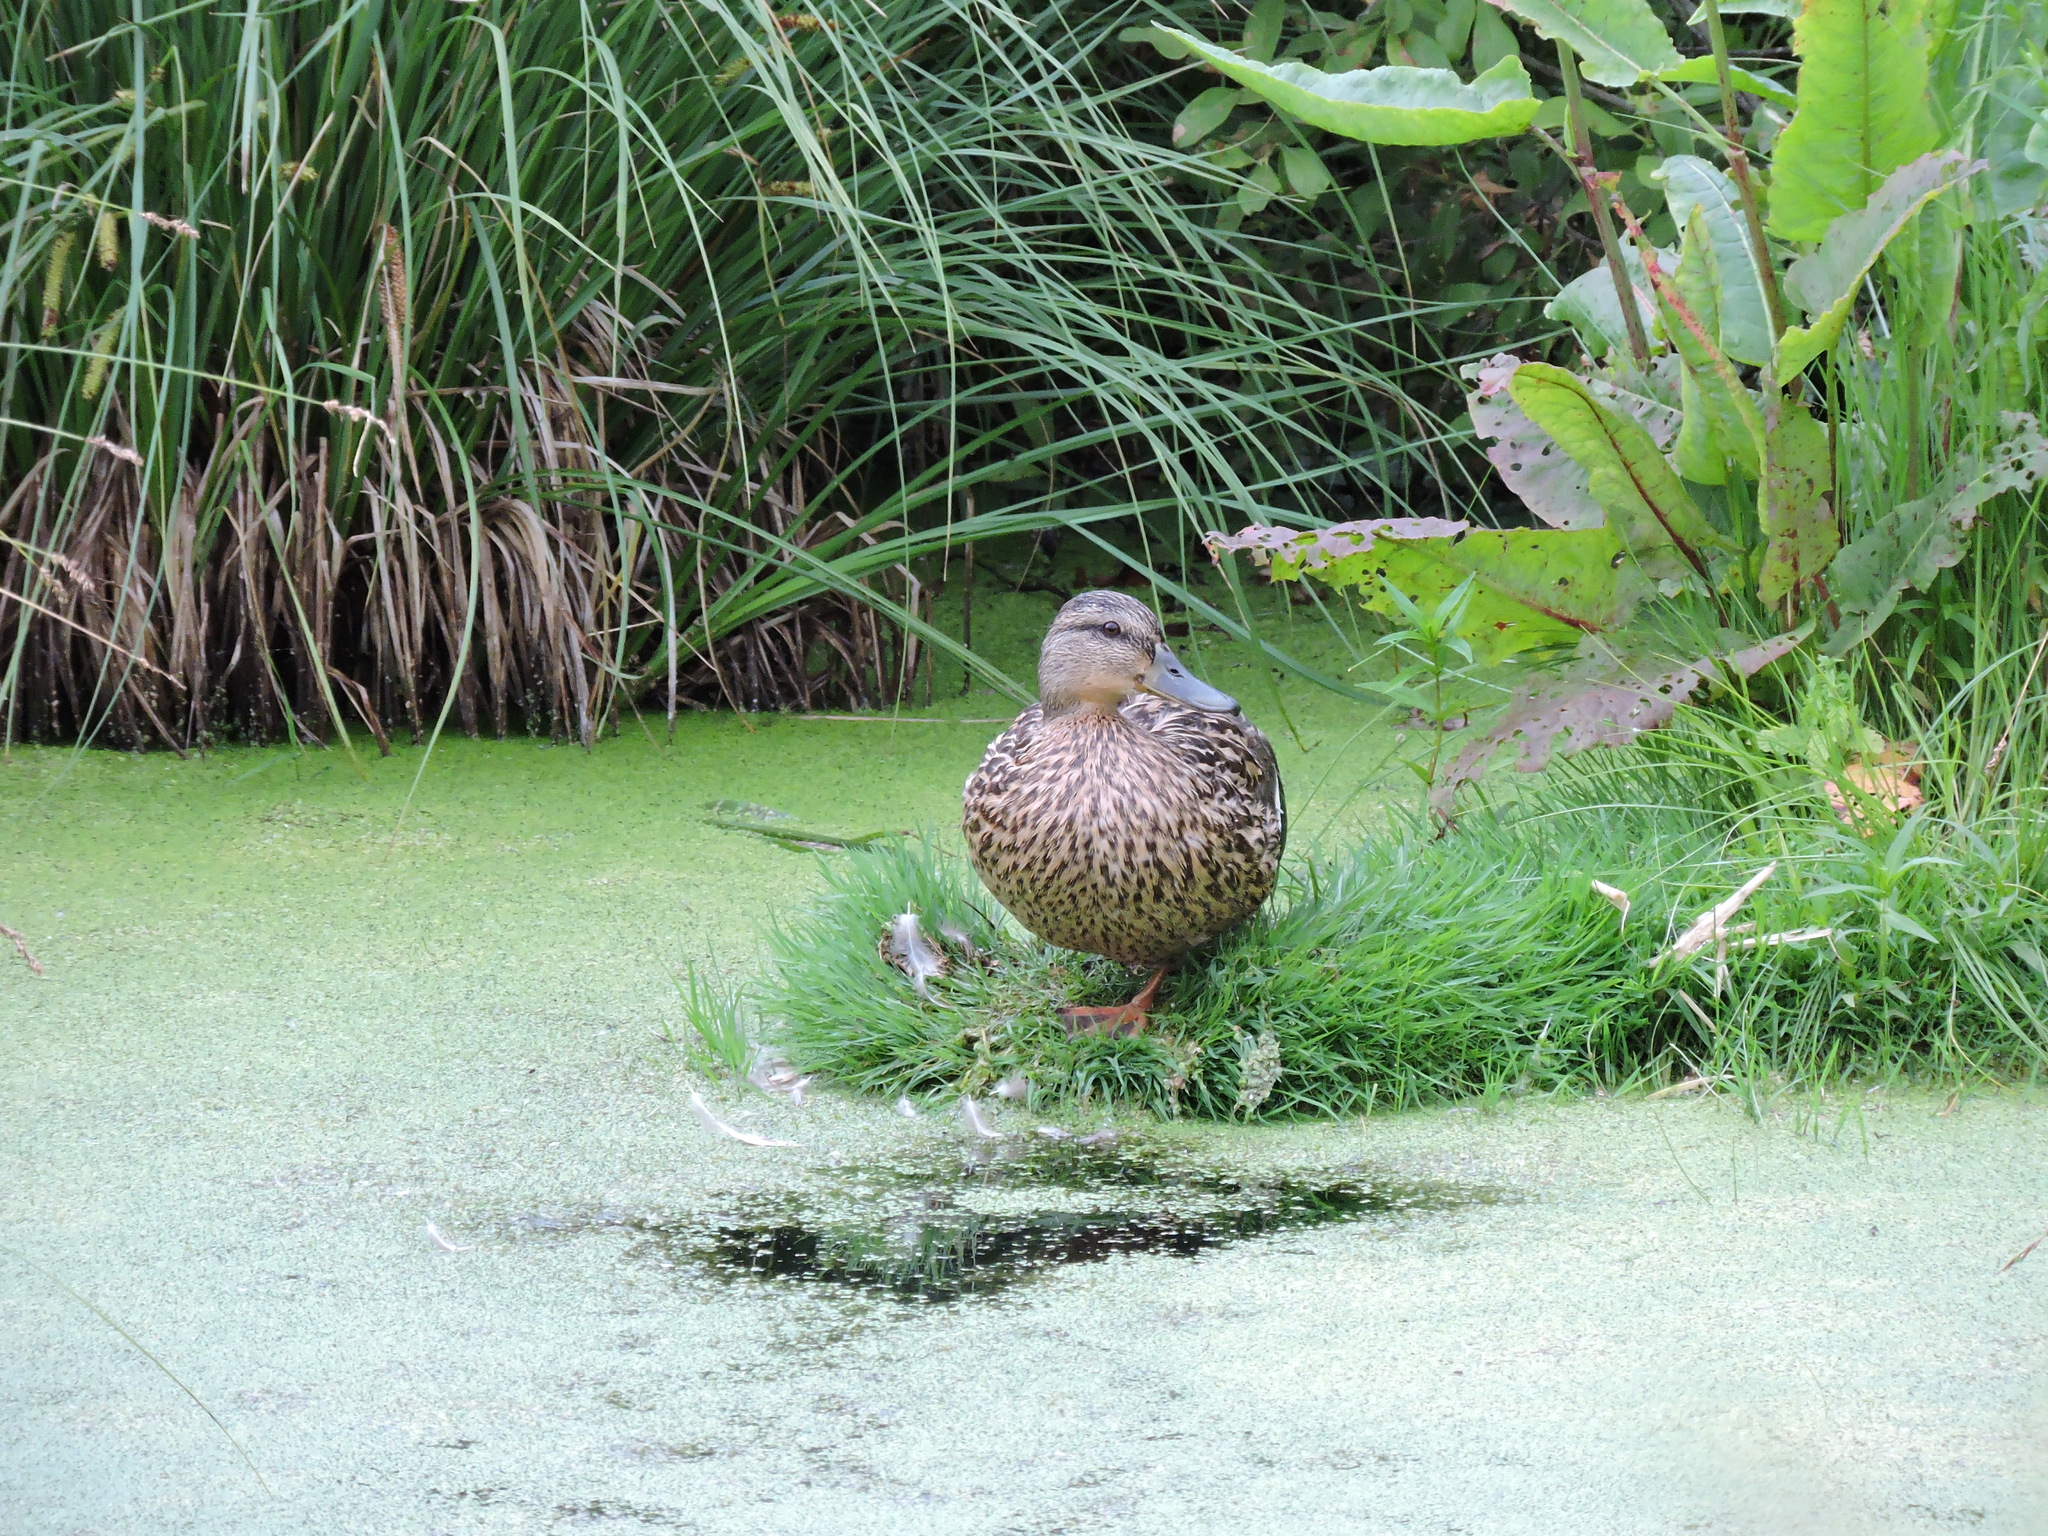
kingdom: Animalia
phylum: Chordata
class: Aves
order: Anseriformes
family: Anatidae
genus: Anas
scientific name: Anas platyrhynchos
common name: Mallard
